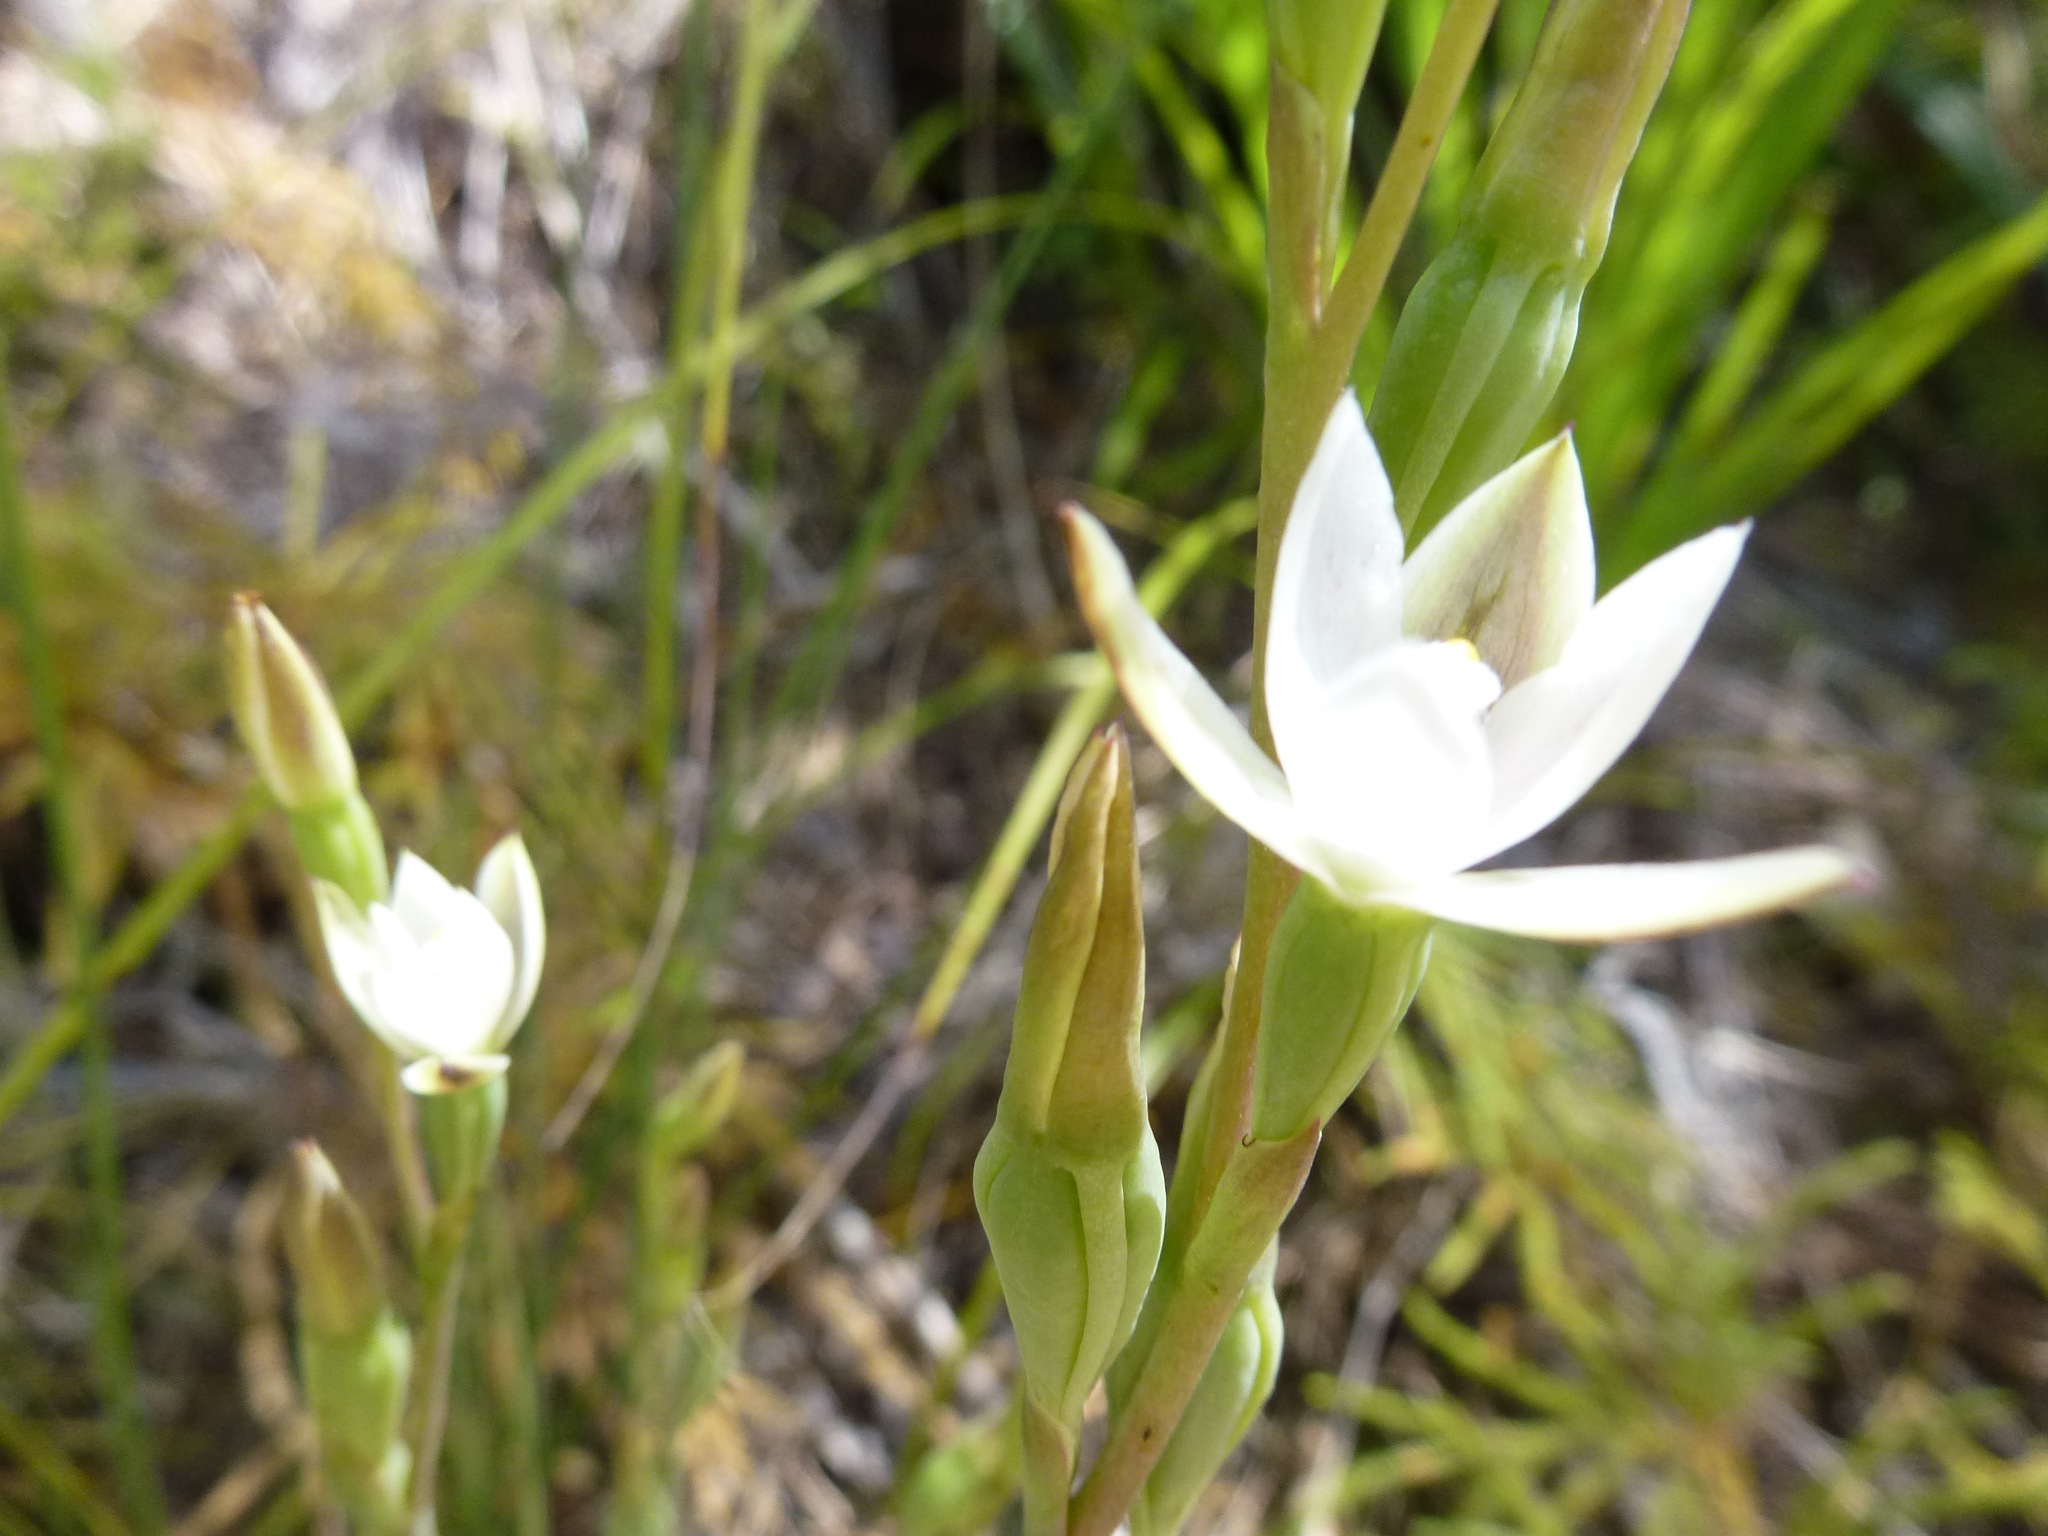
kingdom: Plantae
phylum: Tracheophyta
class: Liliopsida
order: Asparagales
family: Orchidaceae
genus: Thelymitra
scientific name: Thelymitra longifolia
